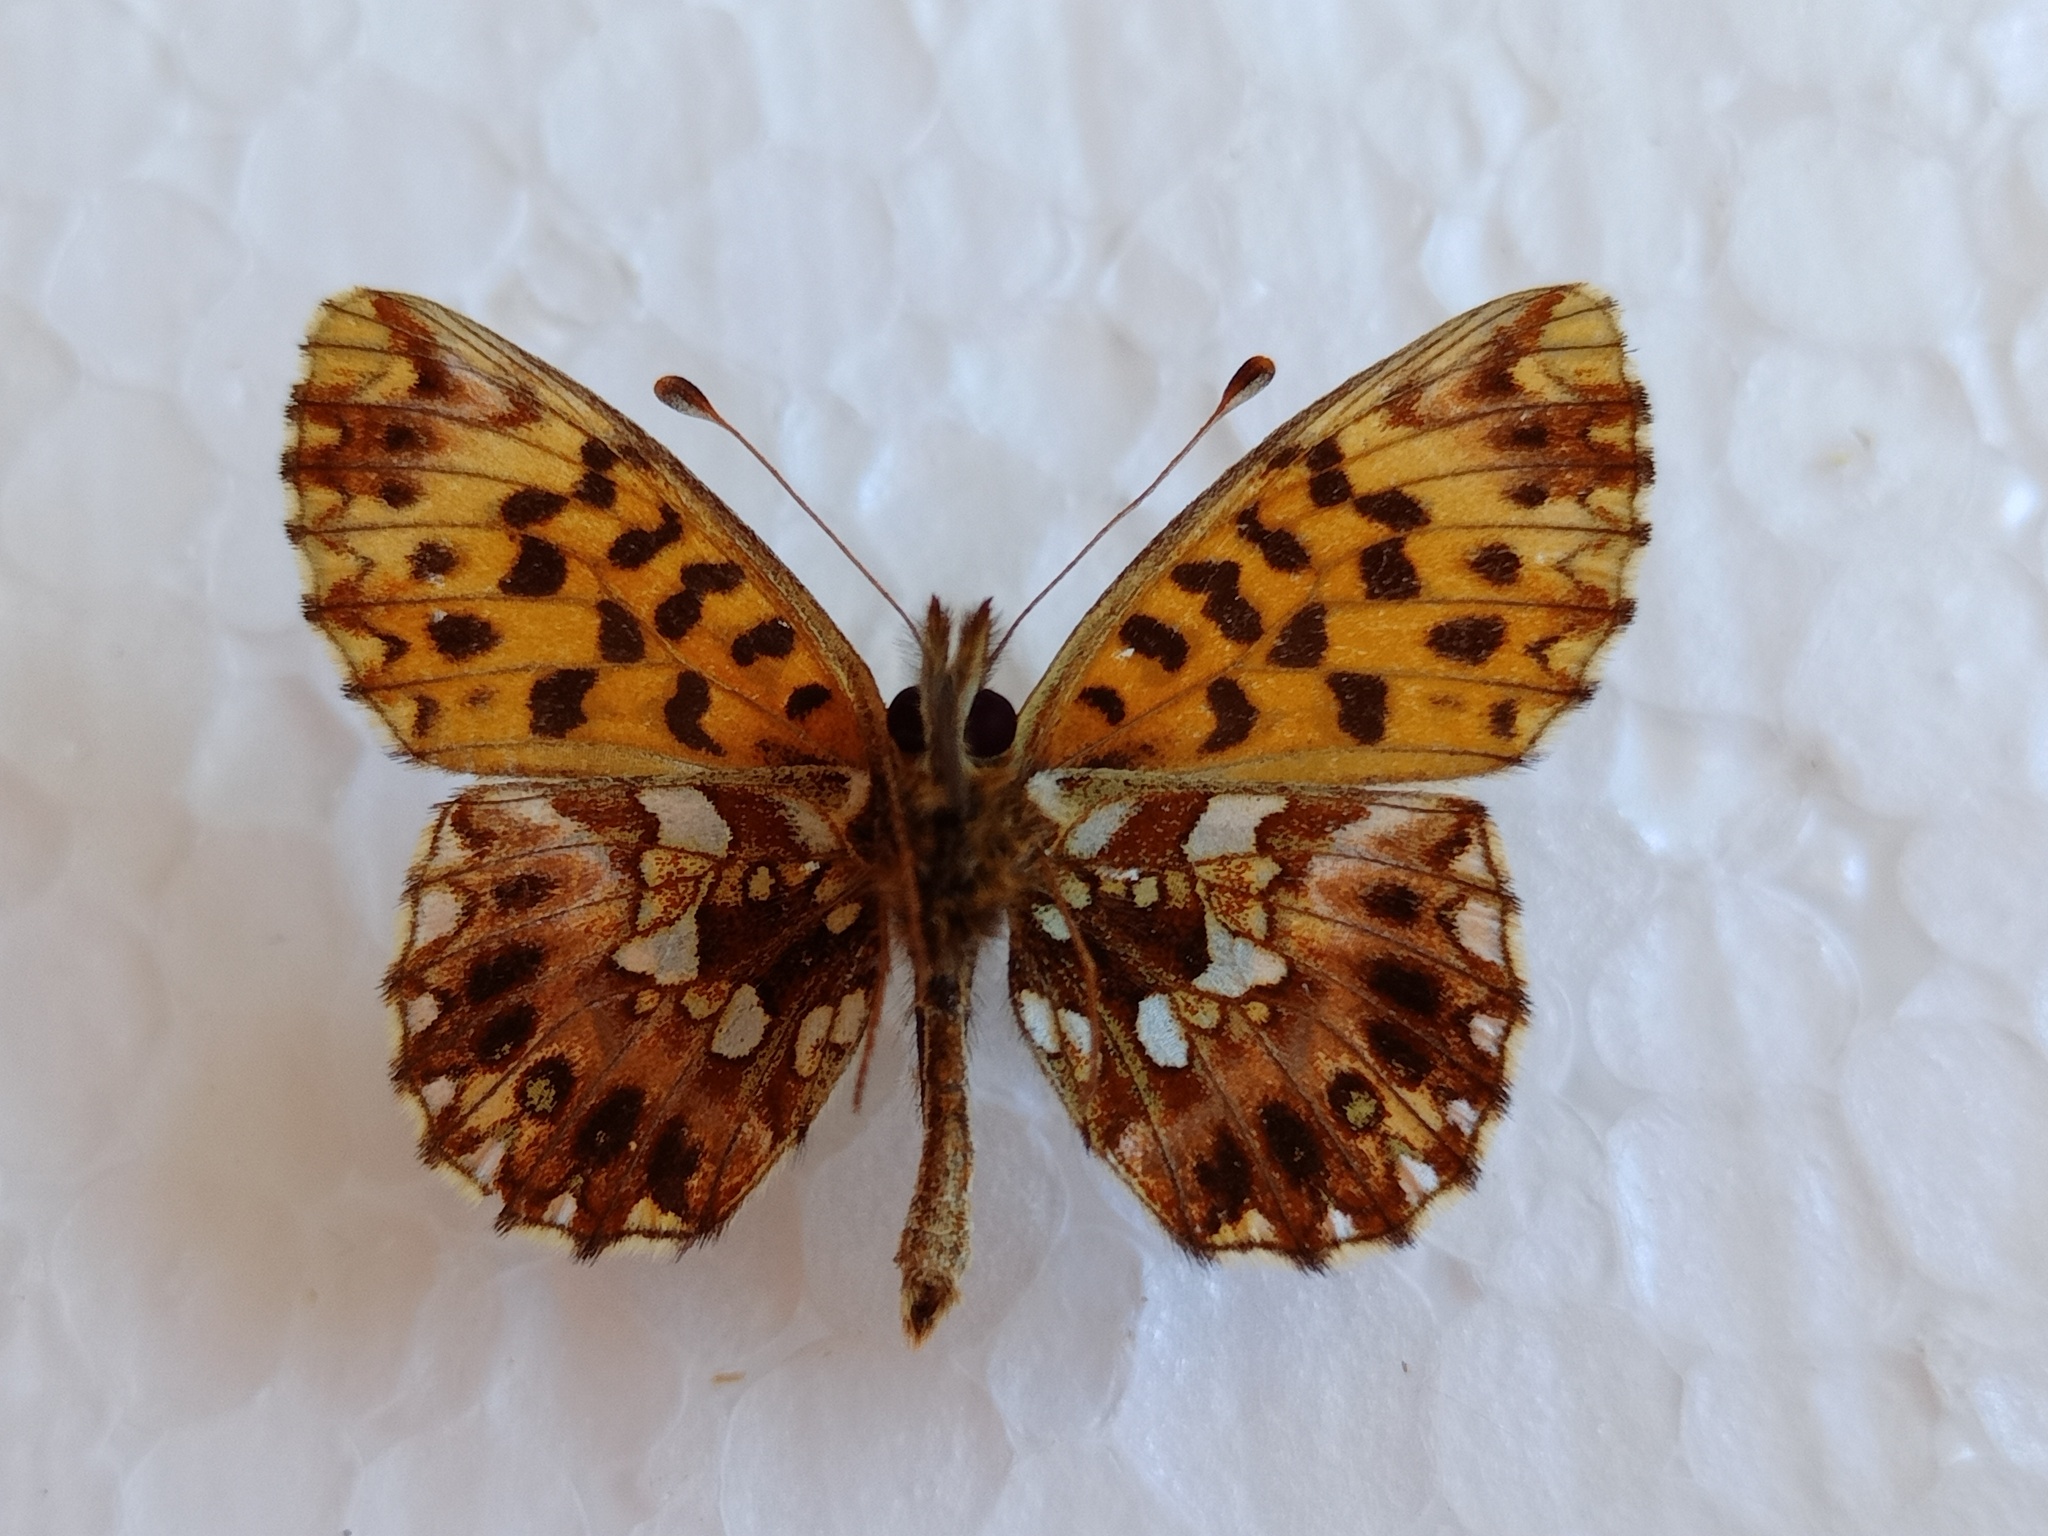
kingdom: Animalia
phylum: Arthropoda
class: Insecta
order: Lepidoptera
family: Nymphalidae
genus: Boloria
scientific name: Boloria dia
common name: Weaver's fritillary
